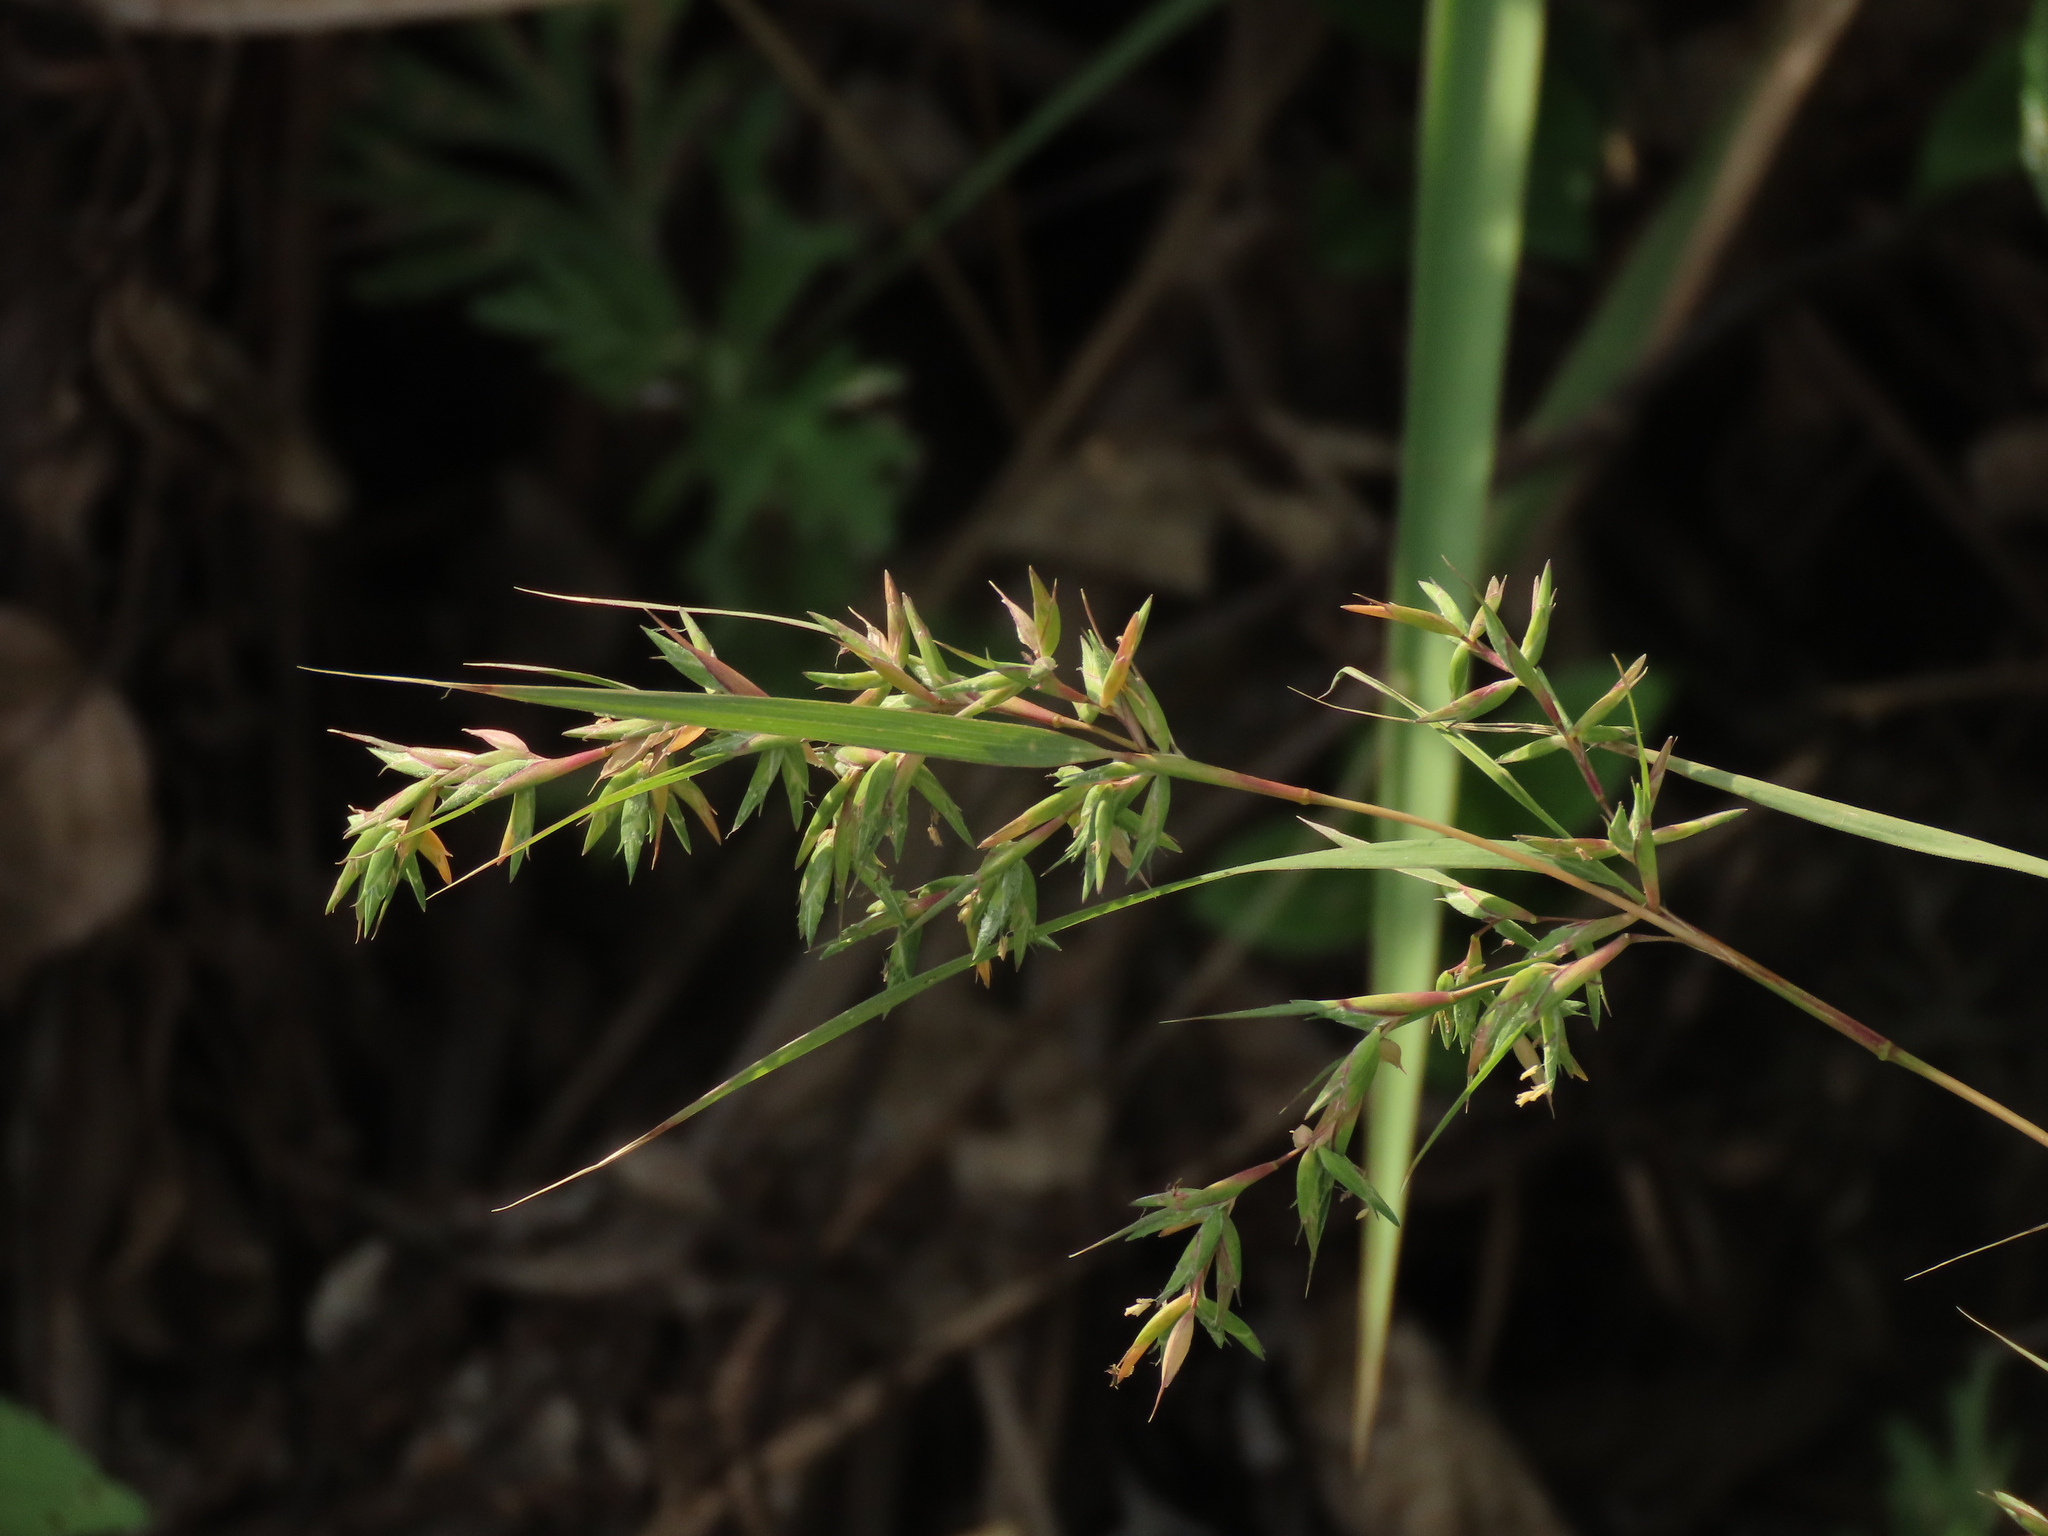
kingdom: Plantae
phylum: Tracheophyta
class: Liliopsida
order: Poales
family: Poaceae
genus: Apluda
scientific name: Apluda mutica
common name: Mauritian grass
